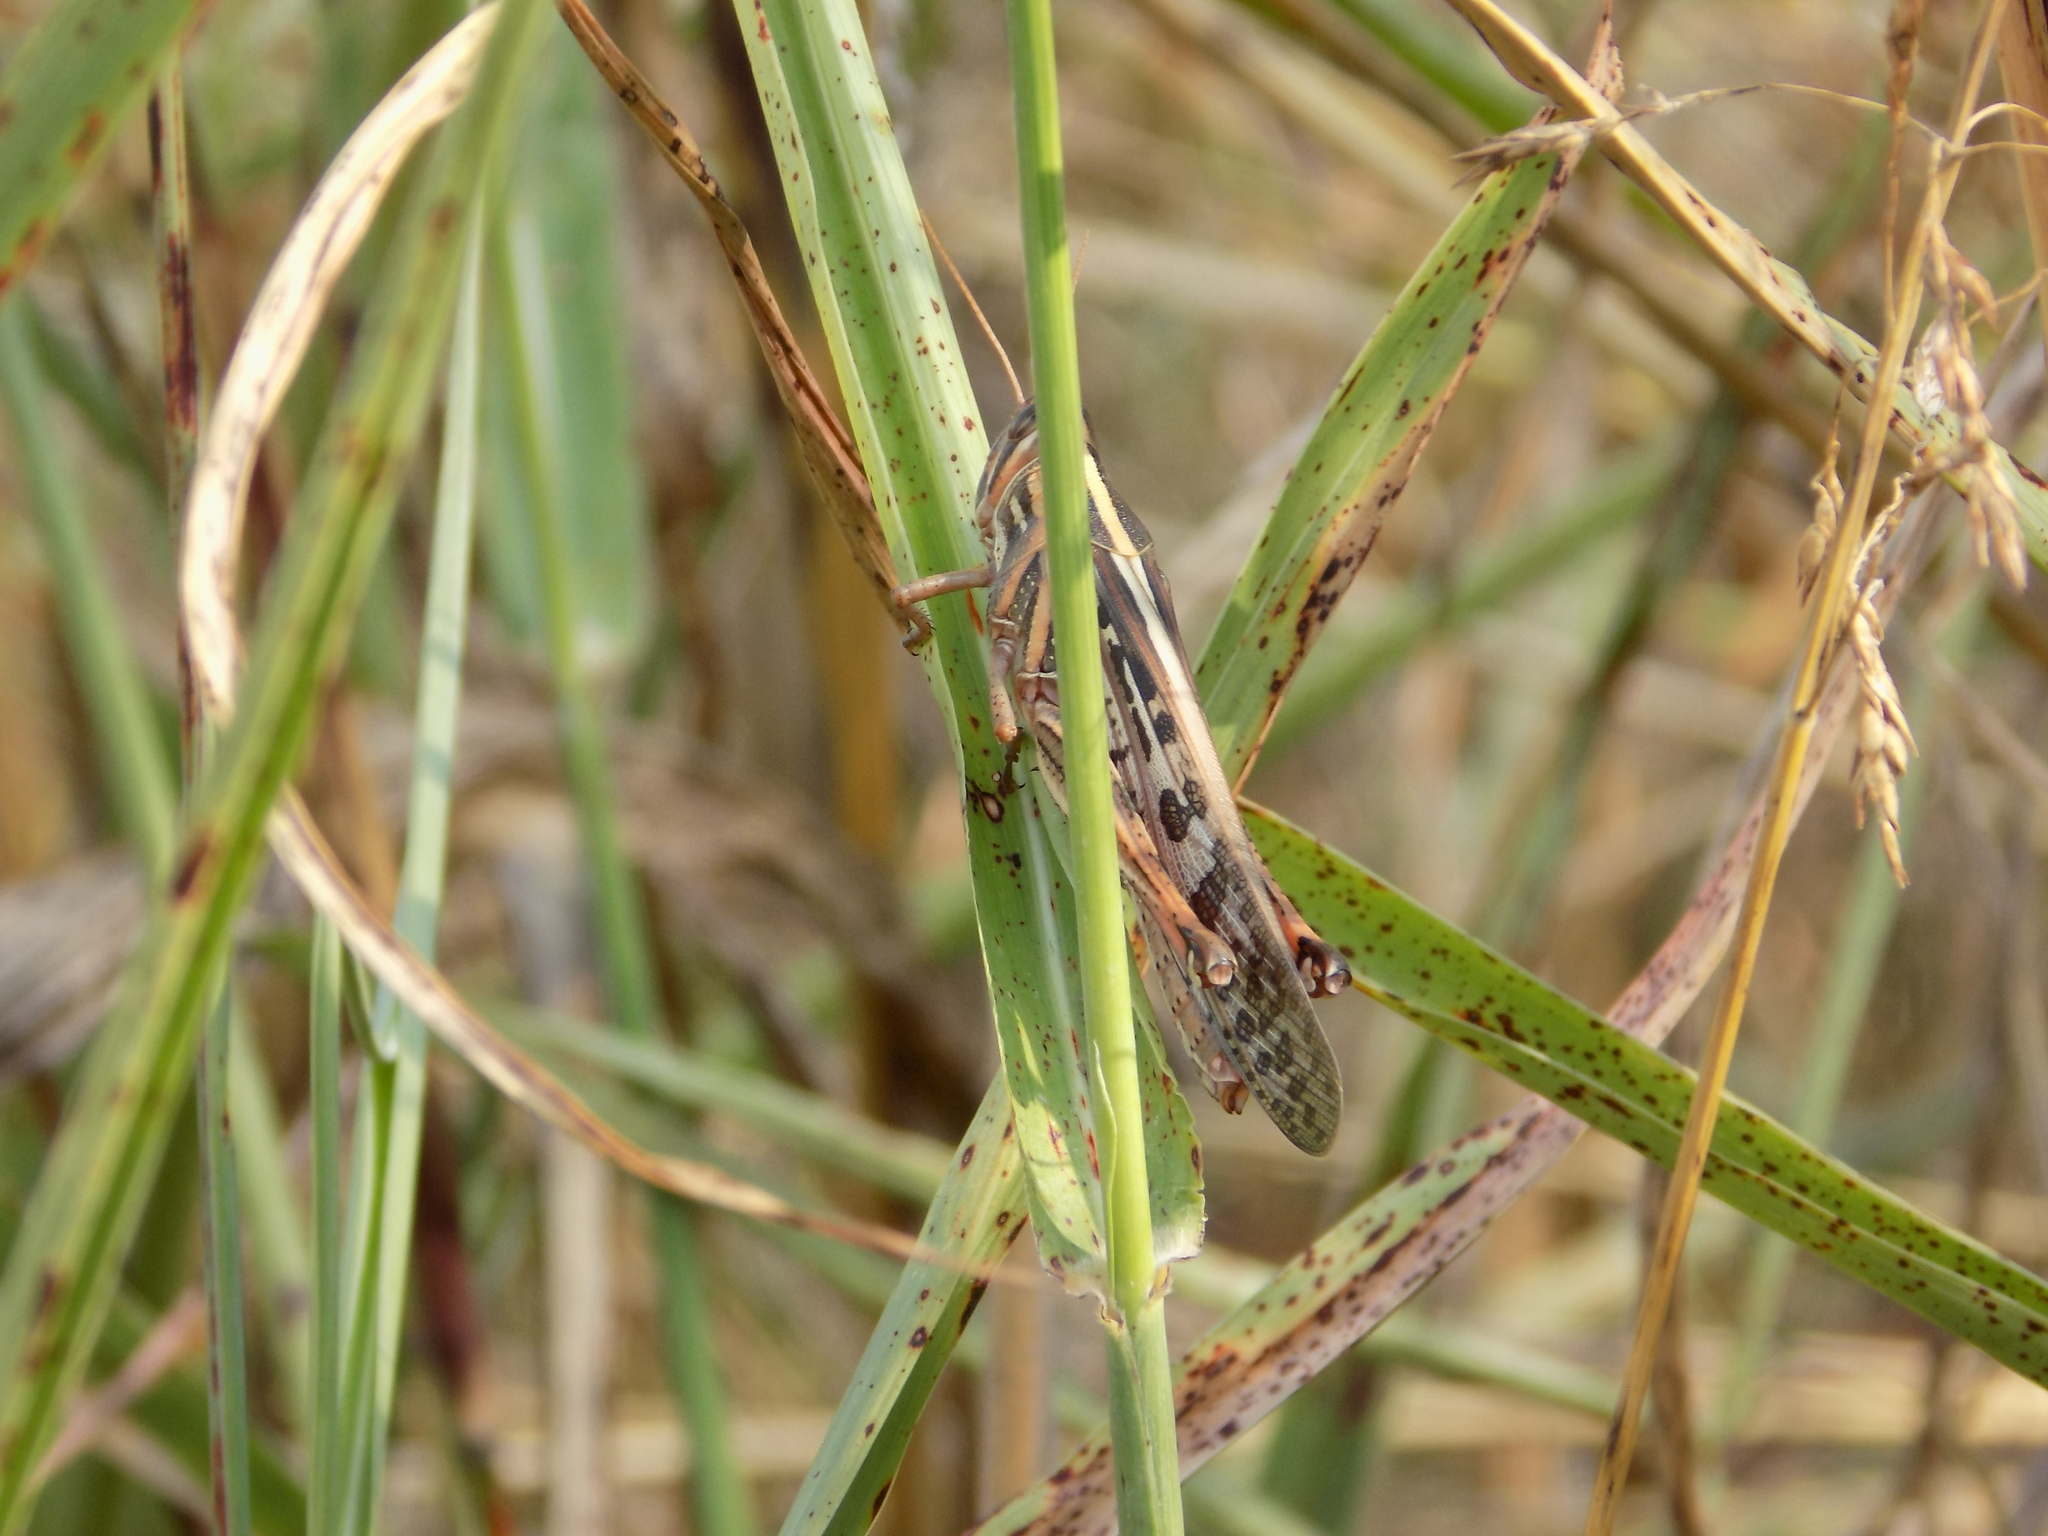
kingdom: Animalia
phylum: Arthropoda
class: Insecta
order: Orthoptera
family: Acrididae
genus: Schistocerca
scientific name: Schistocerca americana
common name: American bird locust
